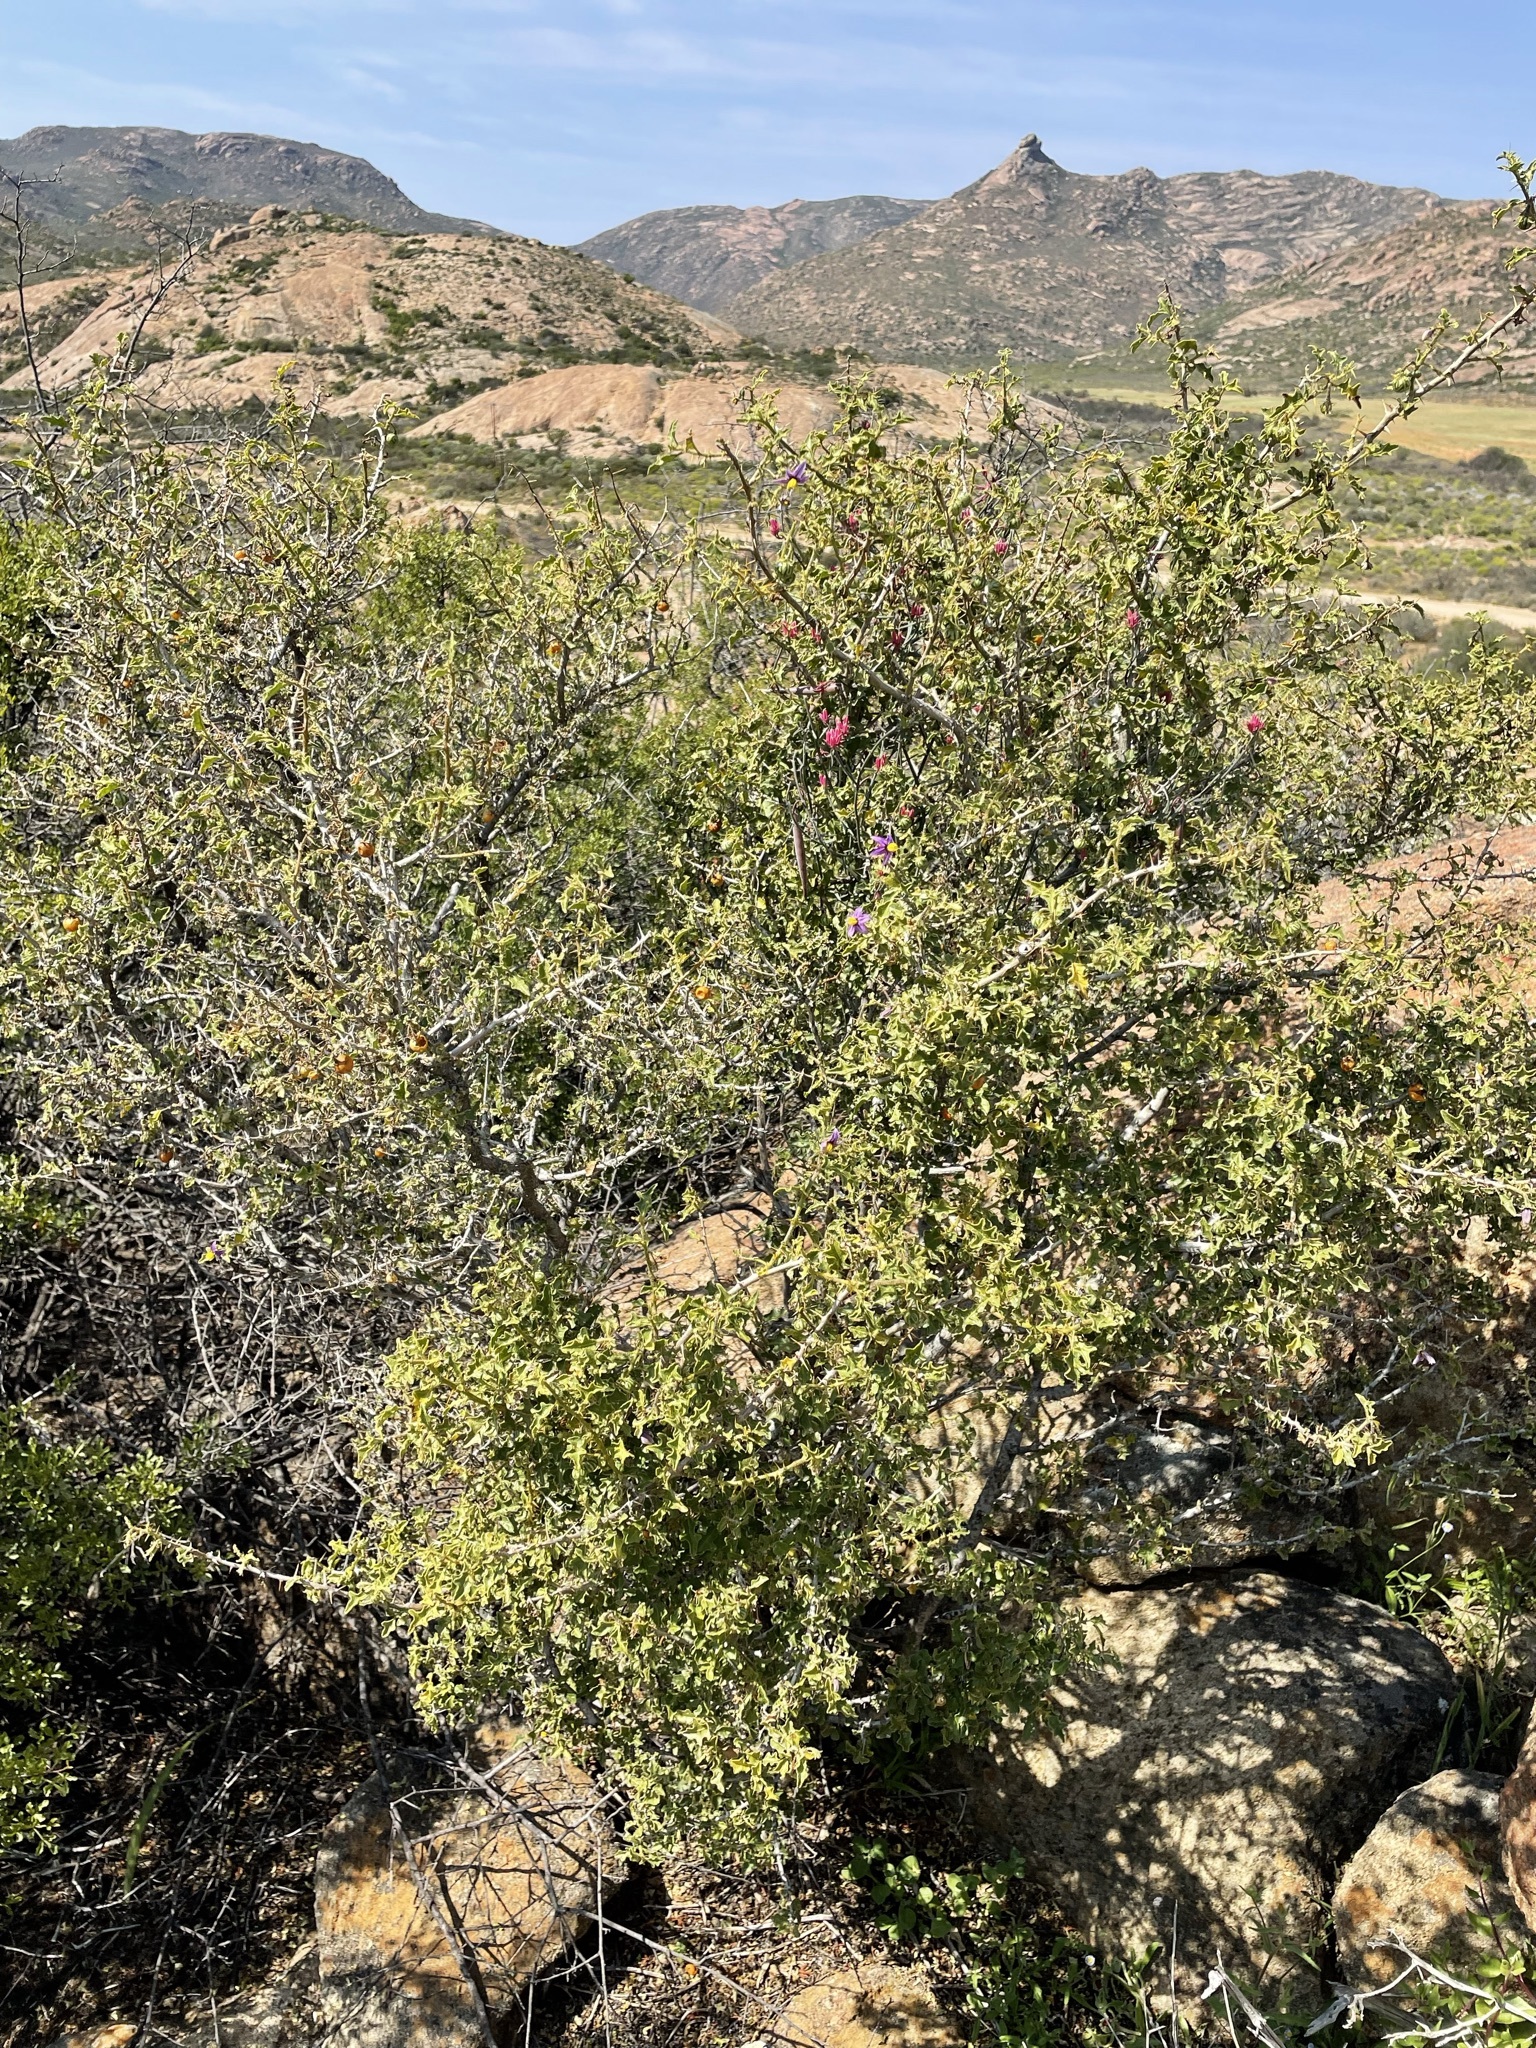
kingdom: Plantae
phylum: Tracheophyta
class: Magnoliopsida
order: Solanales
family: Solanaceae
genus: Solanum
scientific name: Solanum humile
